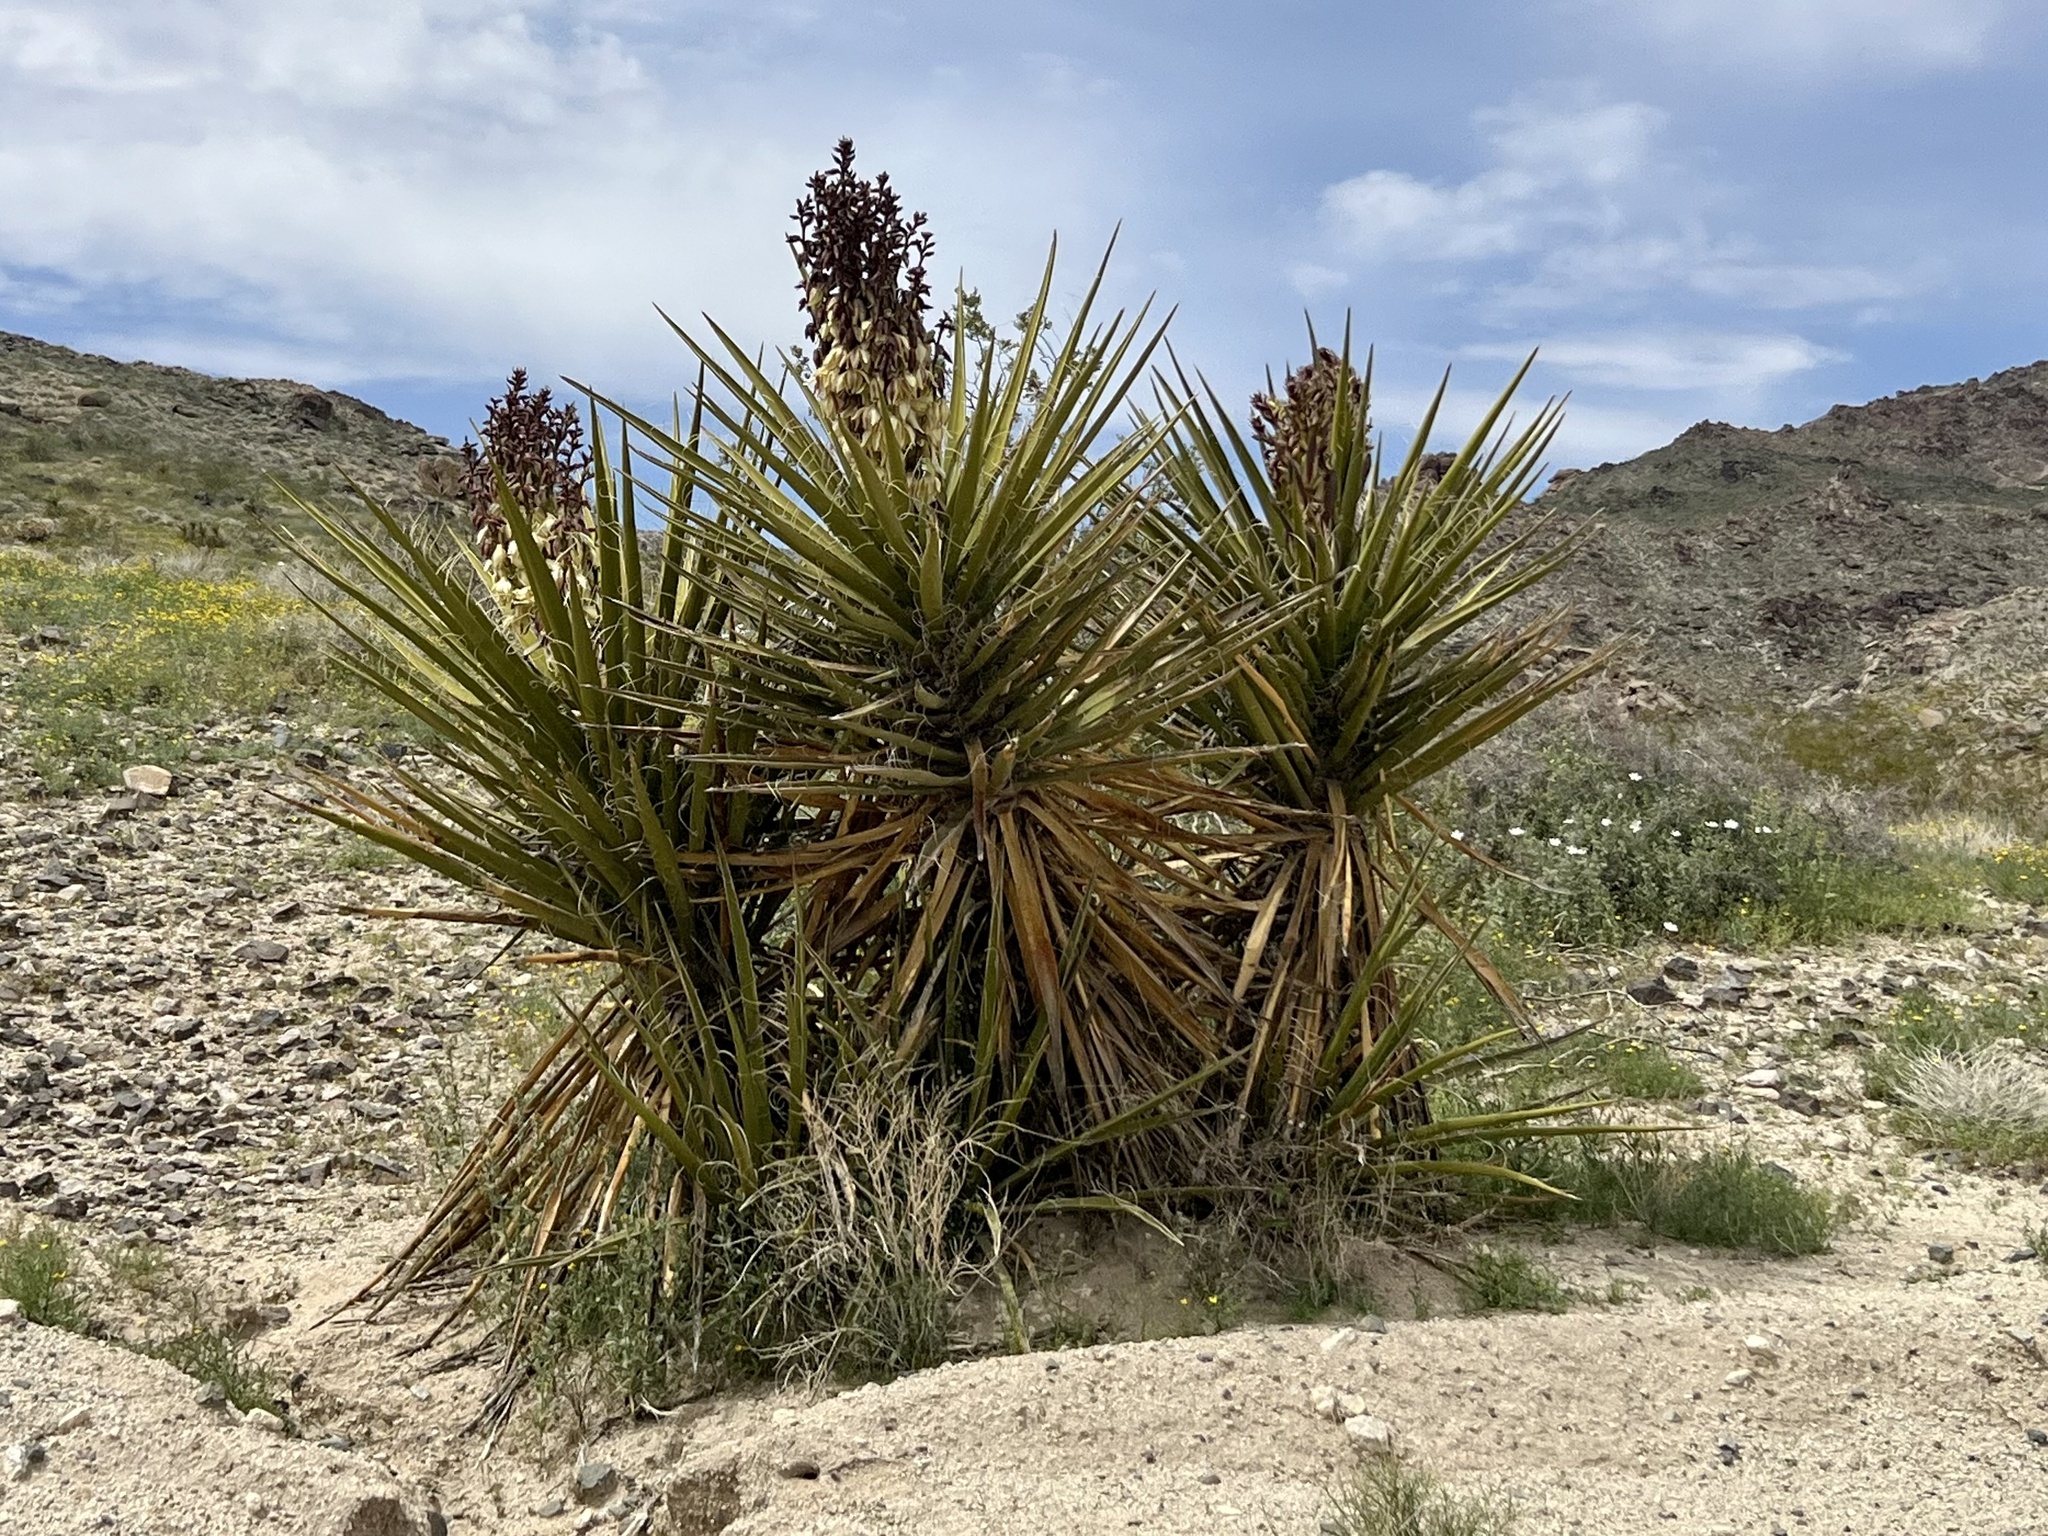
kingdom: Plantae
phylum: Tracheophyta
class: Liliopsida
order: Asparagales
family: Asparagaceae
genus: Yucca
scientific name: Yucca schidigera
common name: Mojave yucca
